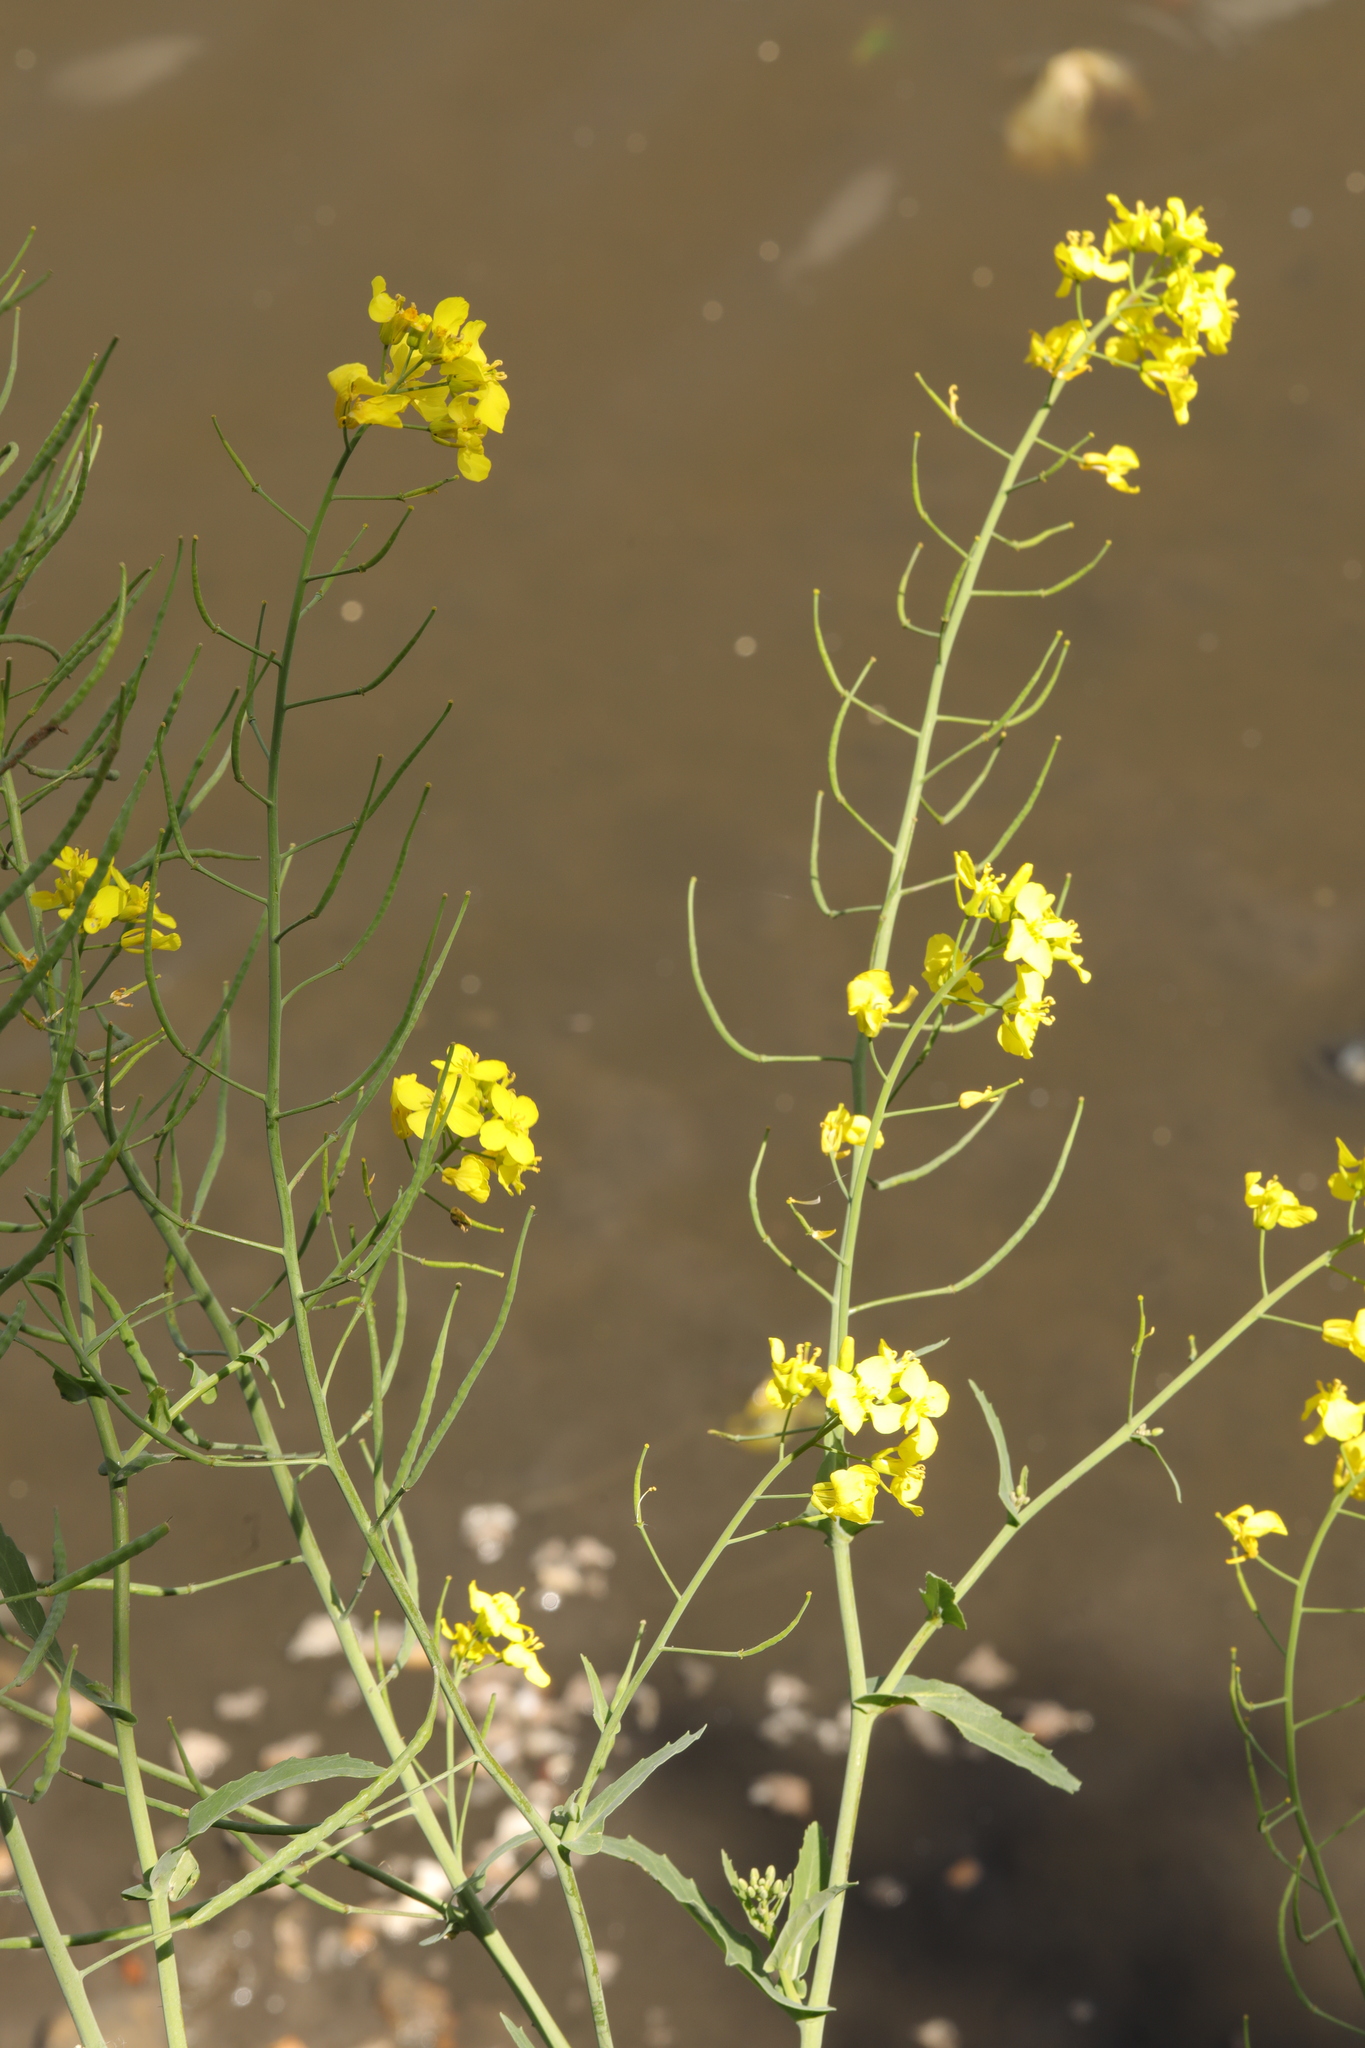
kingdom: Plantae
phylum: Tracheophyta
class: Magnoliopsida
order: Brassicales
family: Brassicaceae
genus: Brassica
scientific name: Brassica rapa
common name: Field mustard
